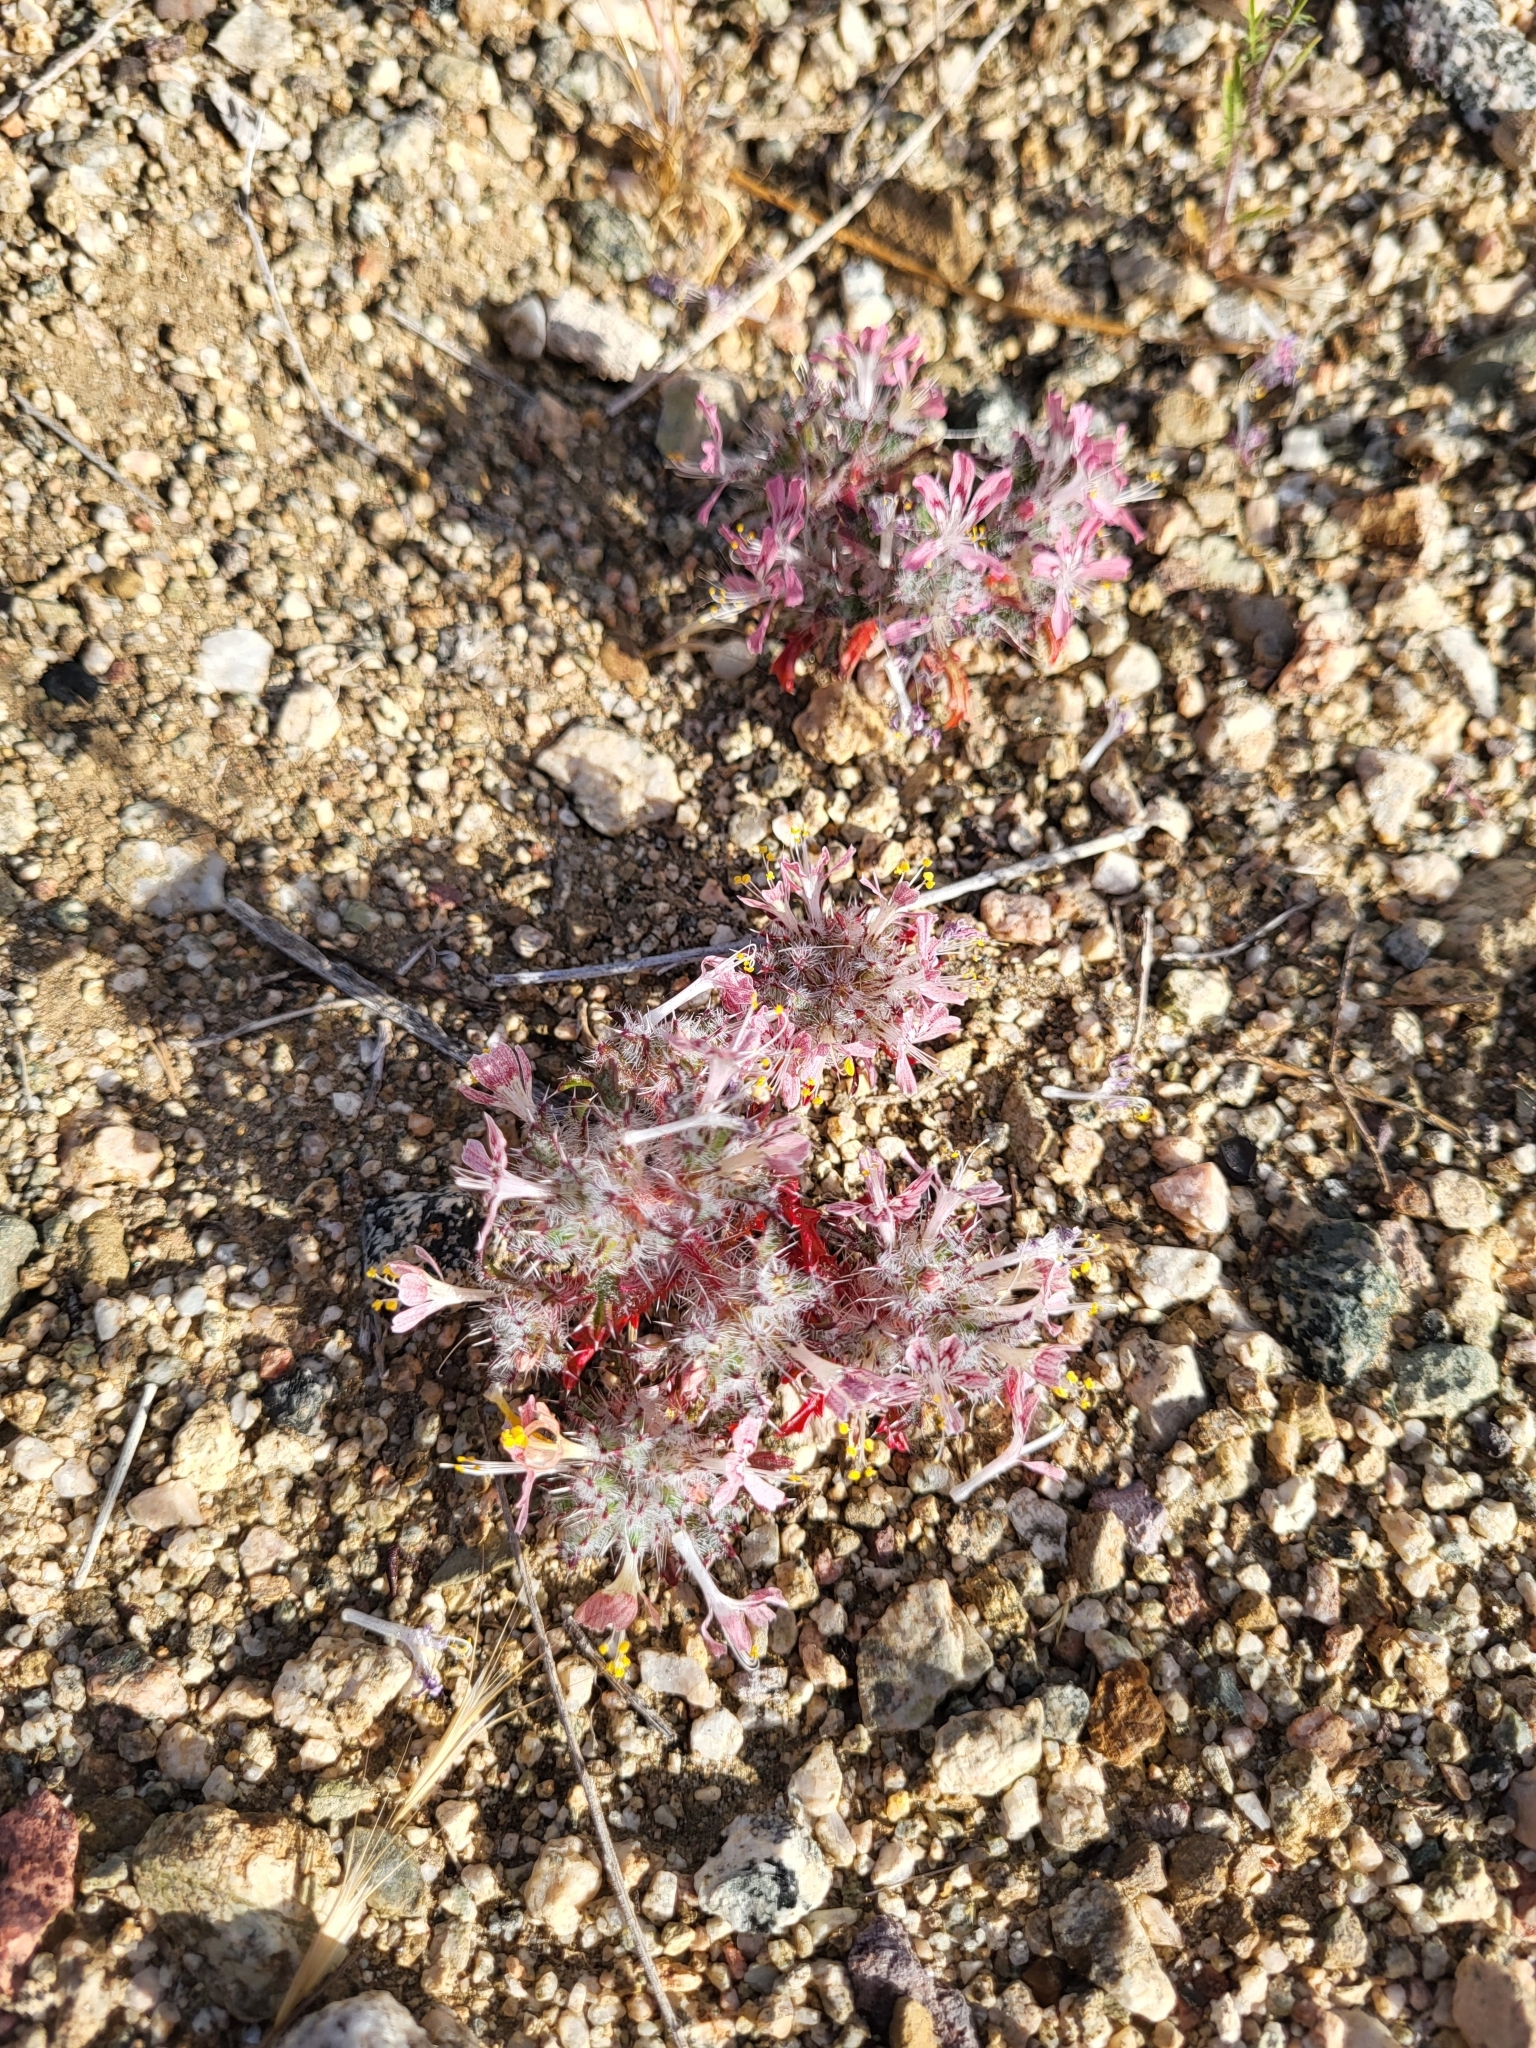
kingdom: Plantae
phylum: Tracheophyta
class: Magnoliopsida
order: Ericales
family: Polemoniaceae
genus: Loeseliastrum
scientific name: Loeseliastrum matthewsii
